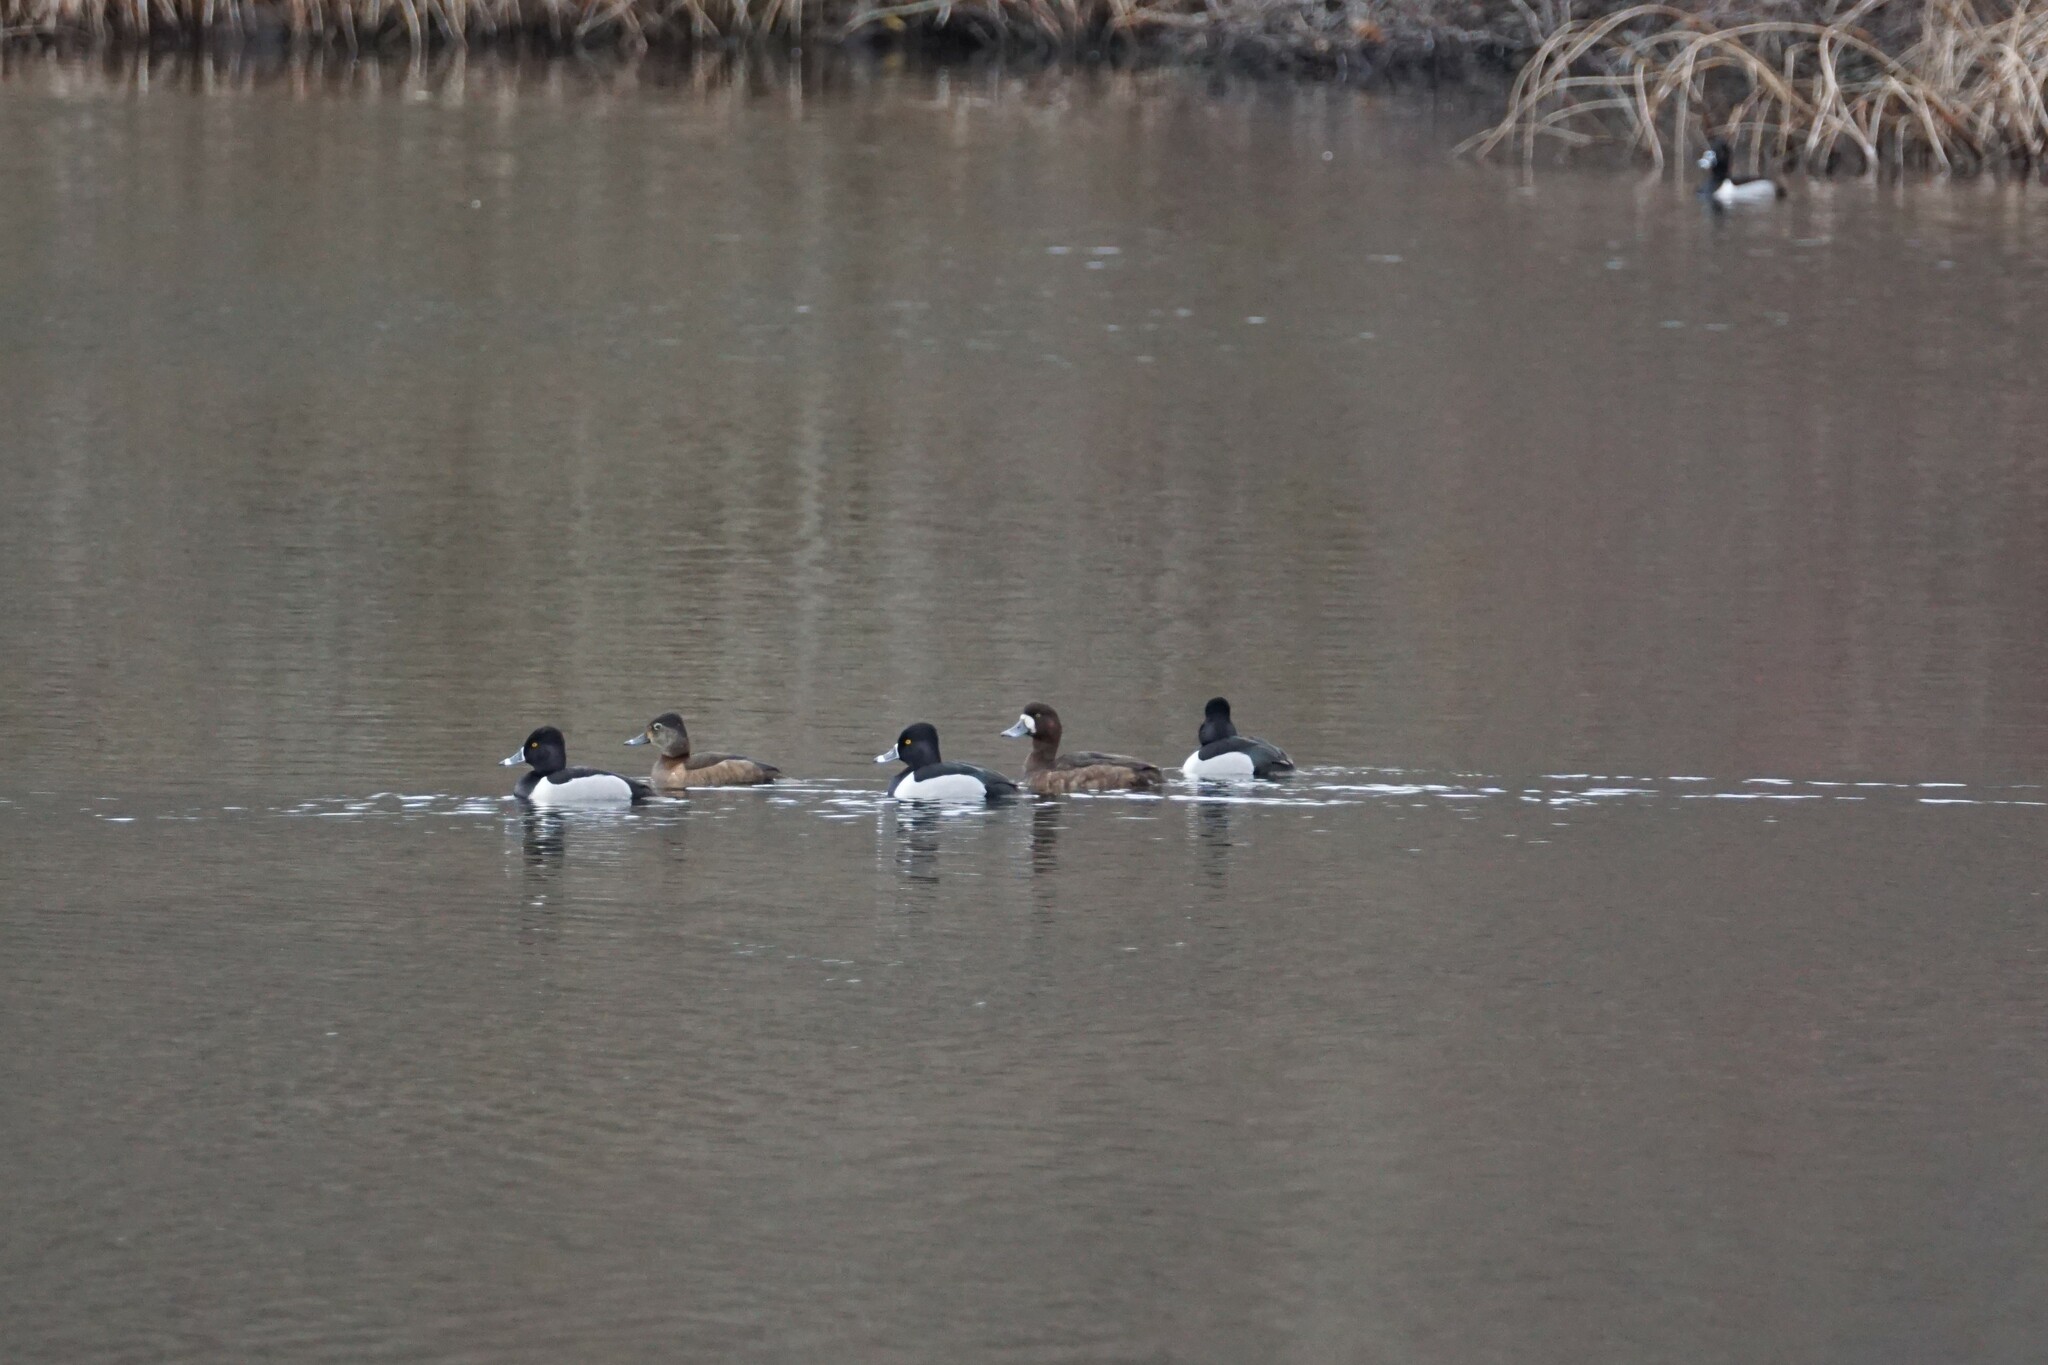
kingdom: Animalia
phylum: Chordata
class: Aves
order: Anseriformes
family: Anatidae
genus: Aythya
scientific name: Aythya marila
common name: Greater scaup
